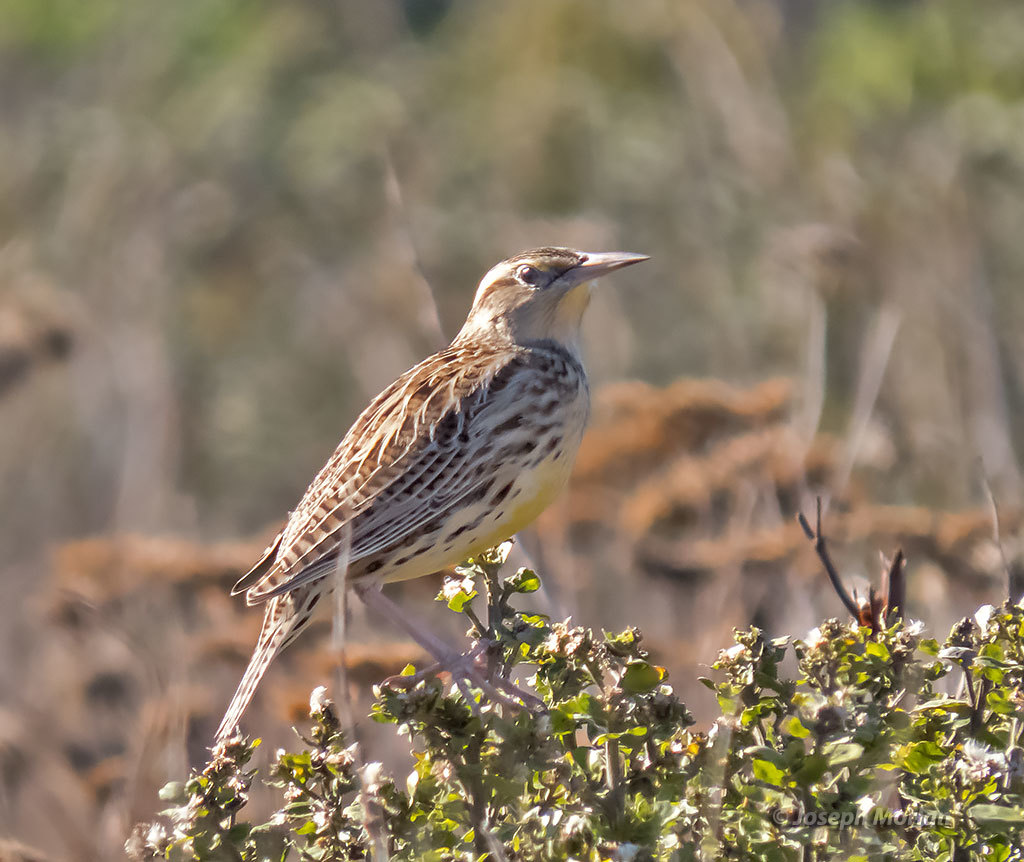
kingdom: Animalia
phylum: Chordata
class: Aves
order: Passeriformes
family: Icteridae
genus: Sturnella
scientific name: Sturnella neglecta
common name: Western meadowlark
